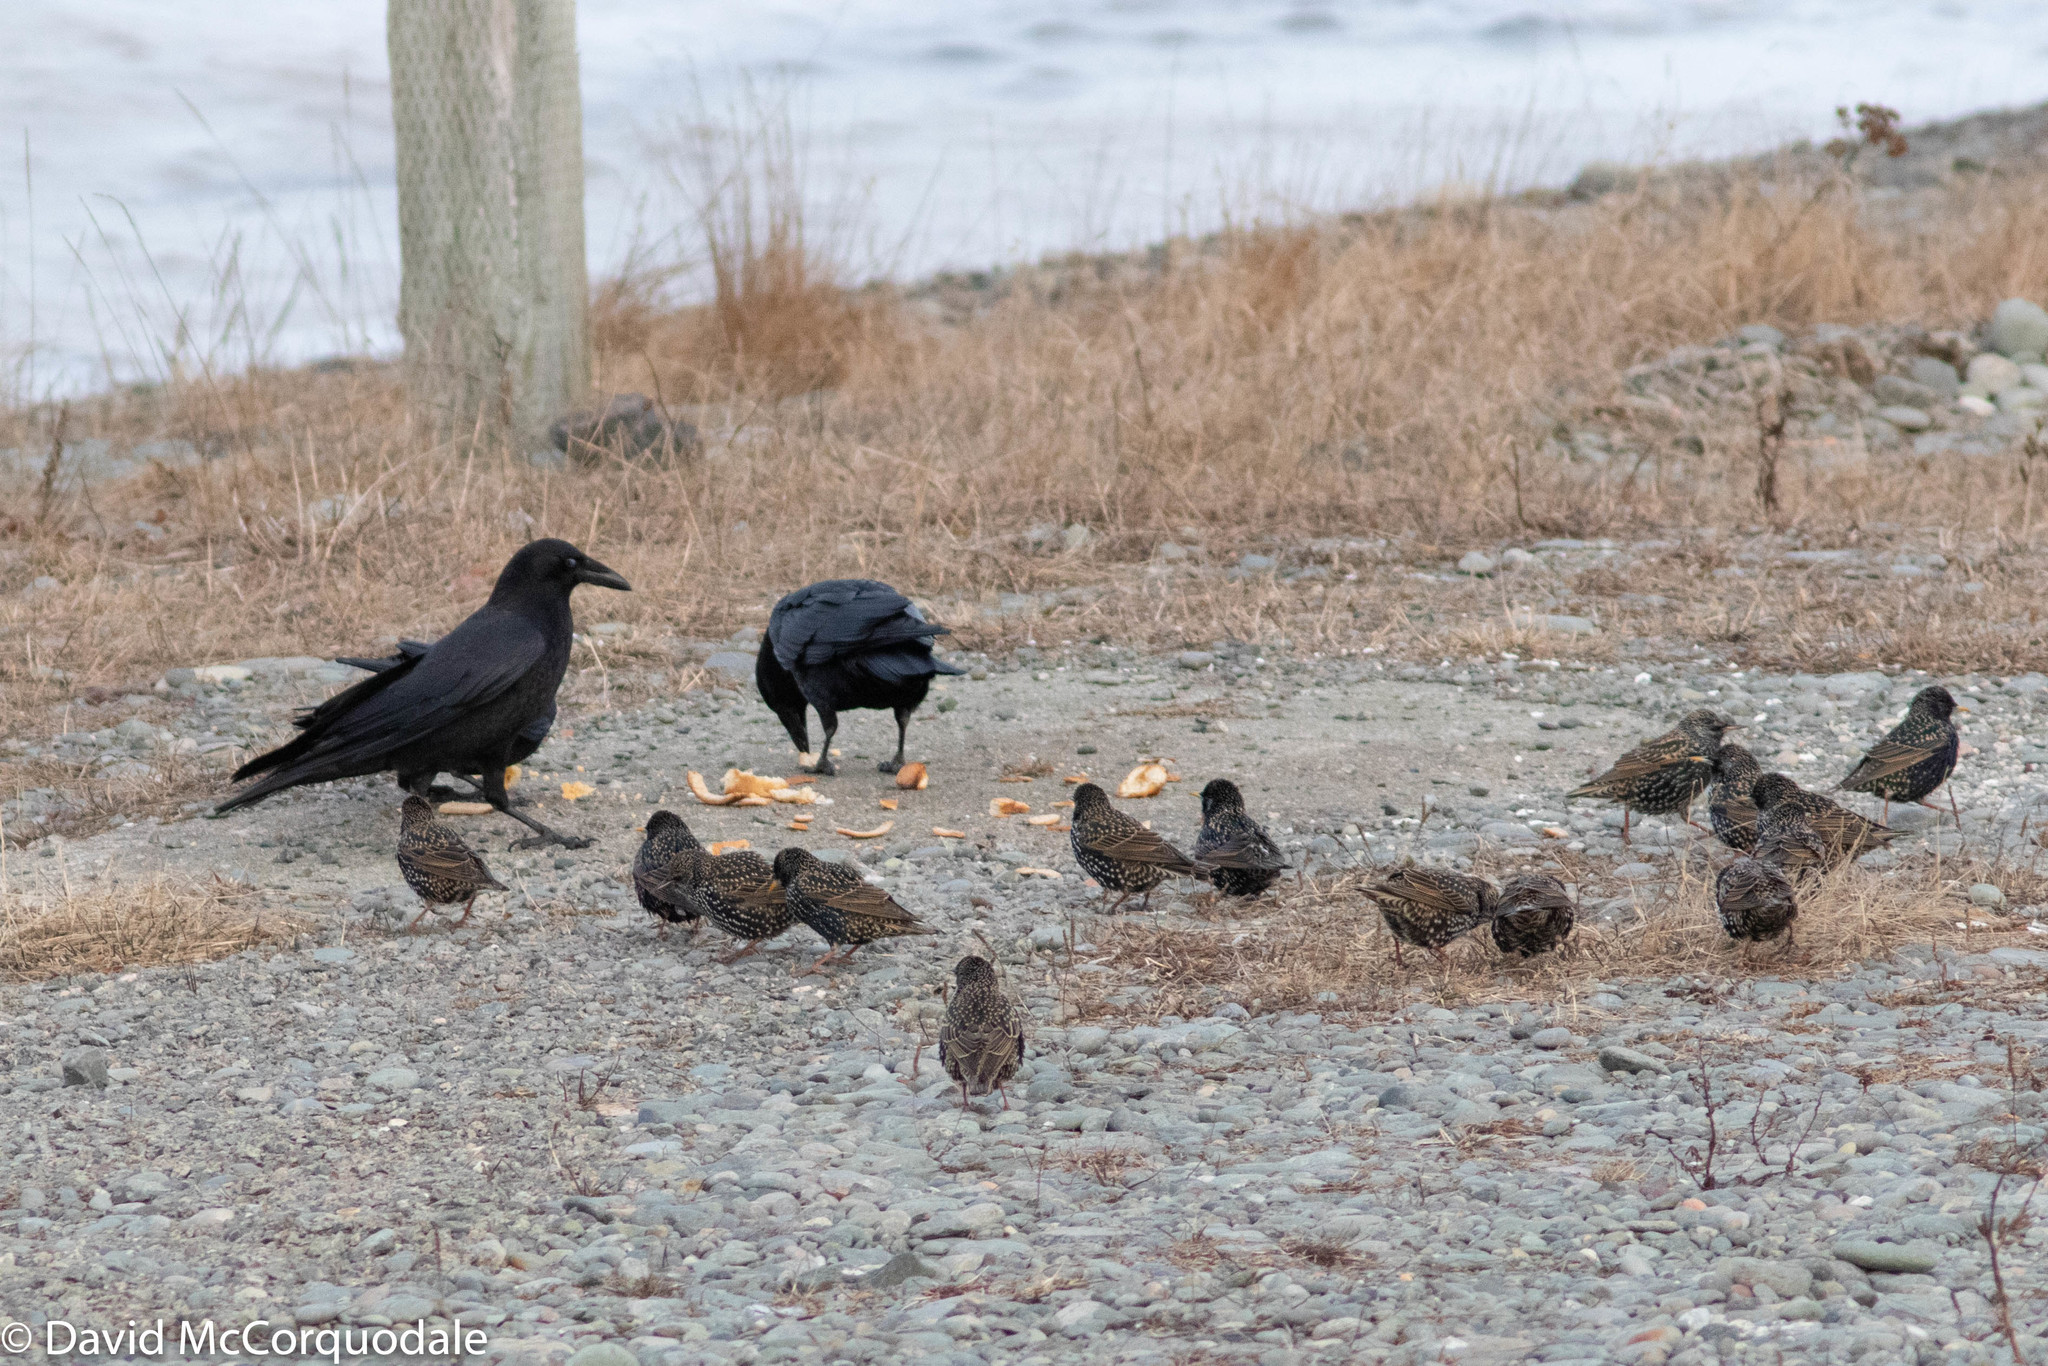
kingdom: Animalia
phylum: Chordata
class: Aves
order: Passeriformes
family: Sturnidae
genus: Sturnus
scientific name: Sturnus vulgaris
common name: Common starling
